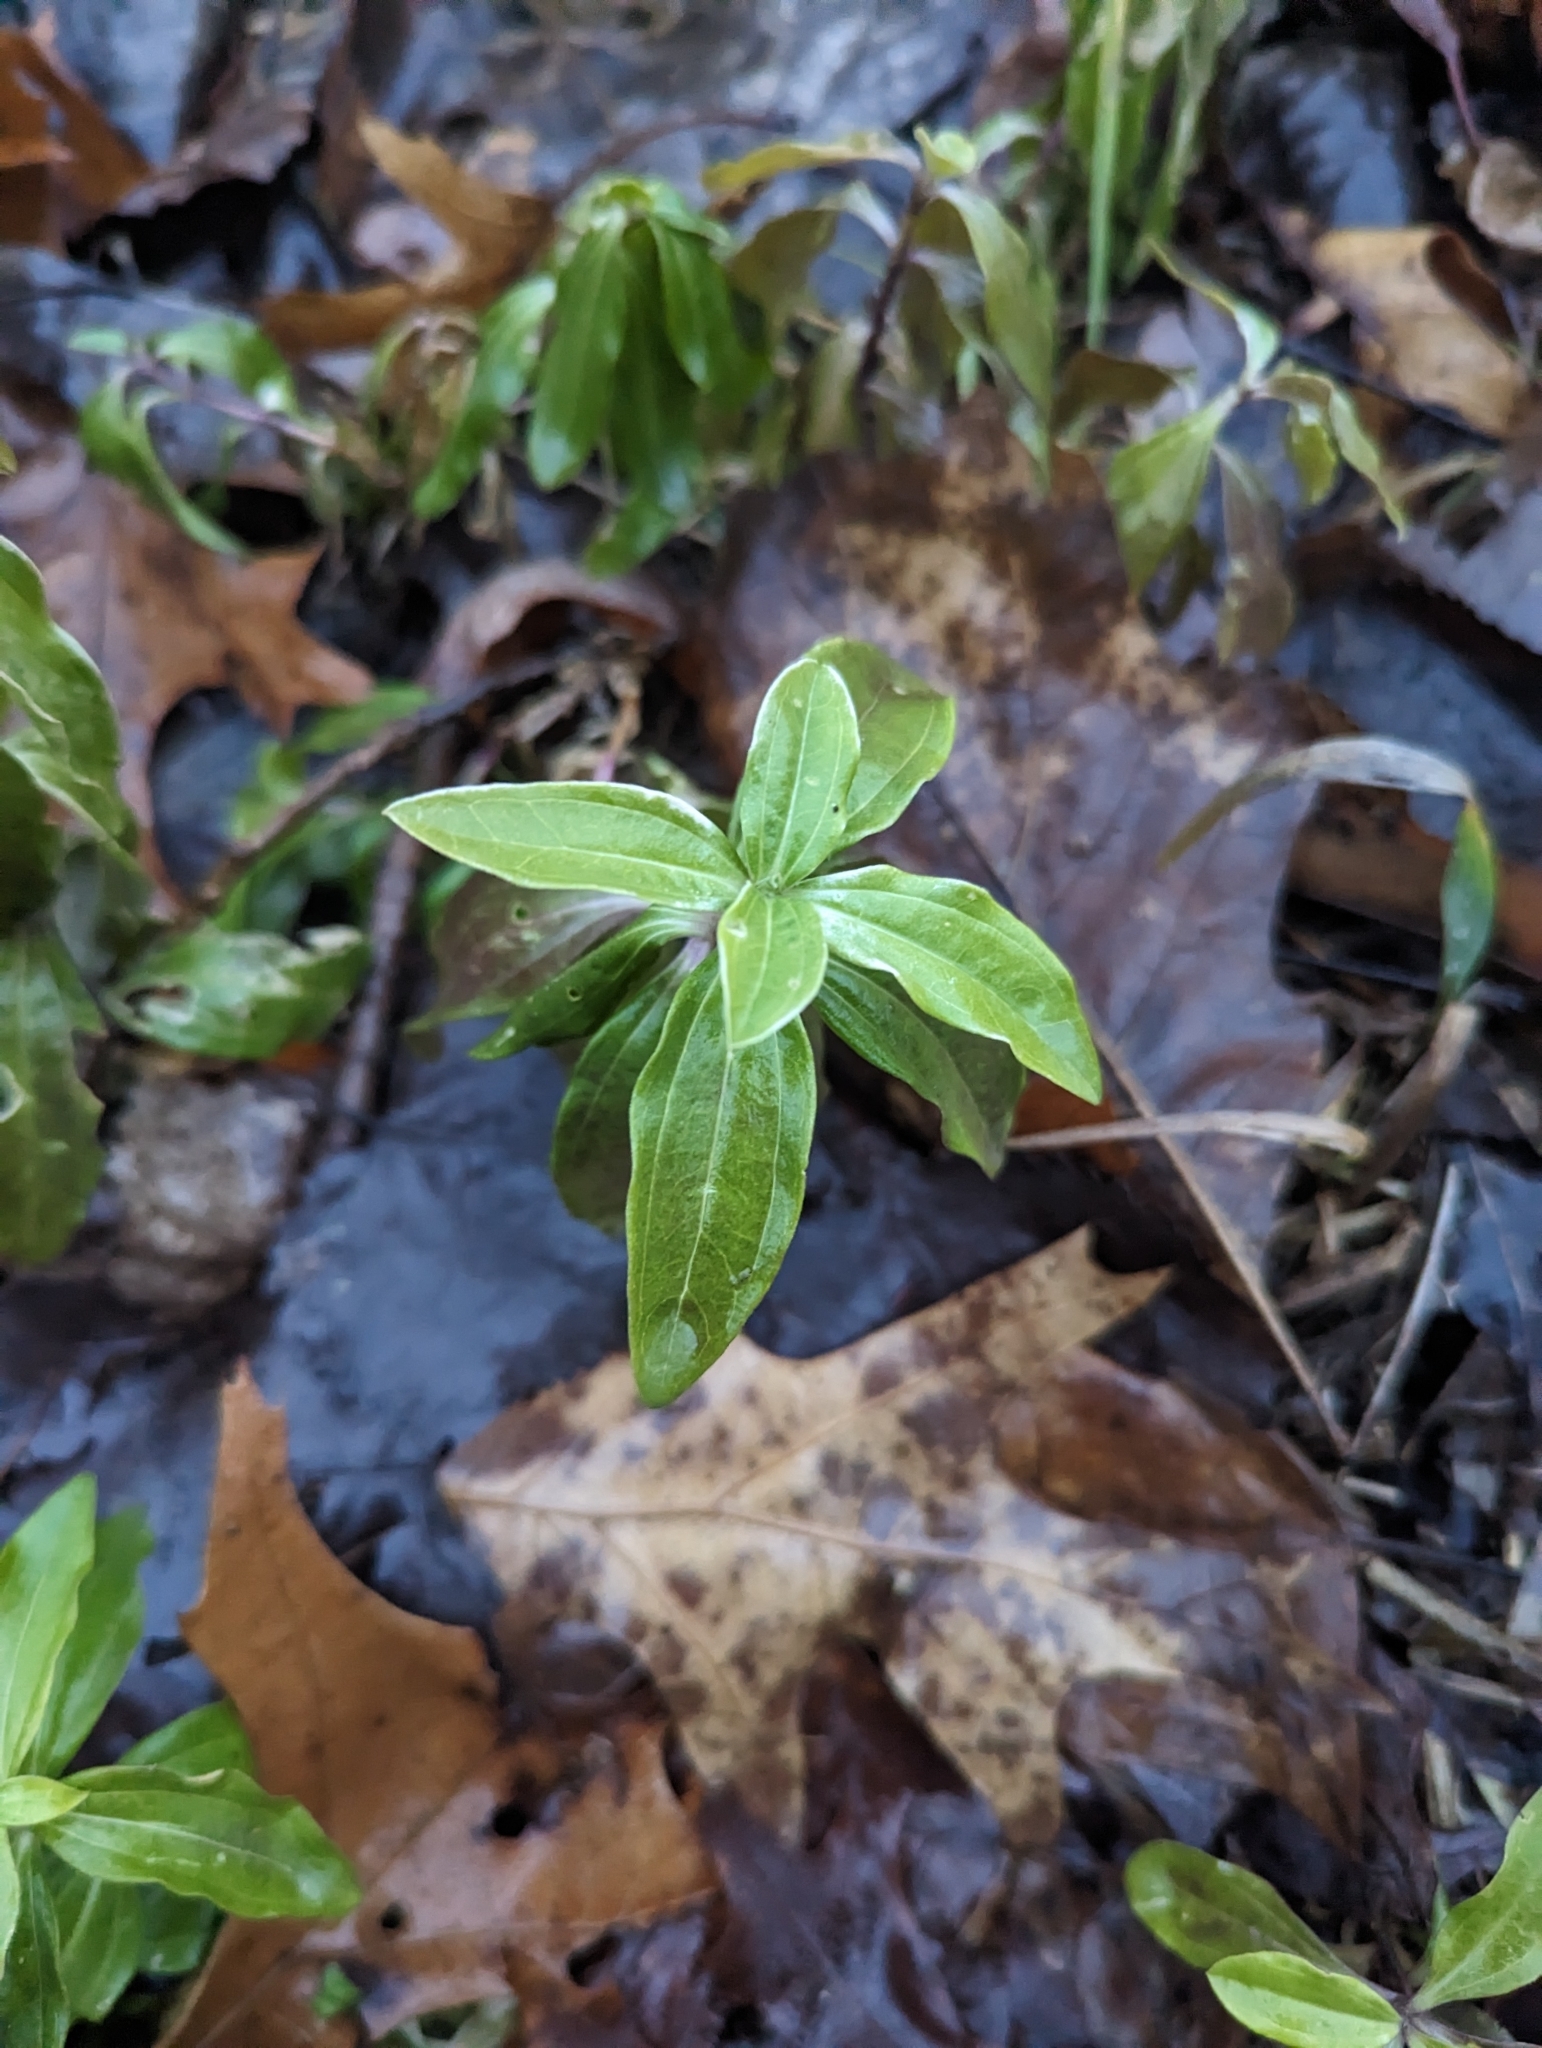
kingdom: Plantae
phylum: Tracheophyta
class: Magnoliopsida
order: Caryophyllales
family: Caryophyllaceae
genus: Saponaria
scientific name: Saponaria officinalis
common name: Soapwort
